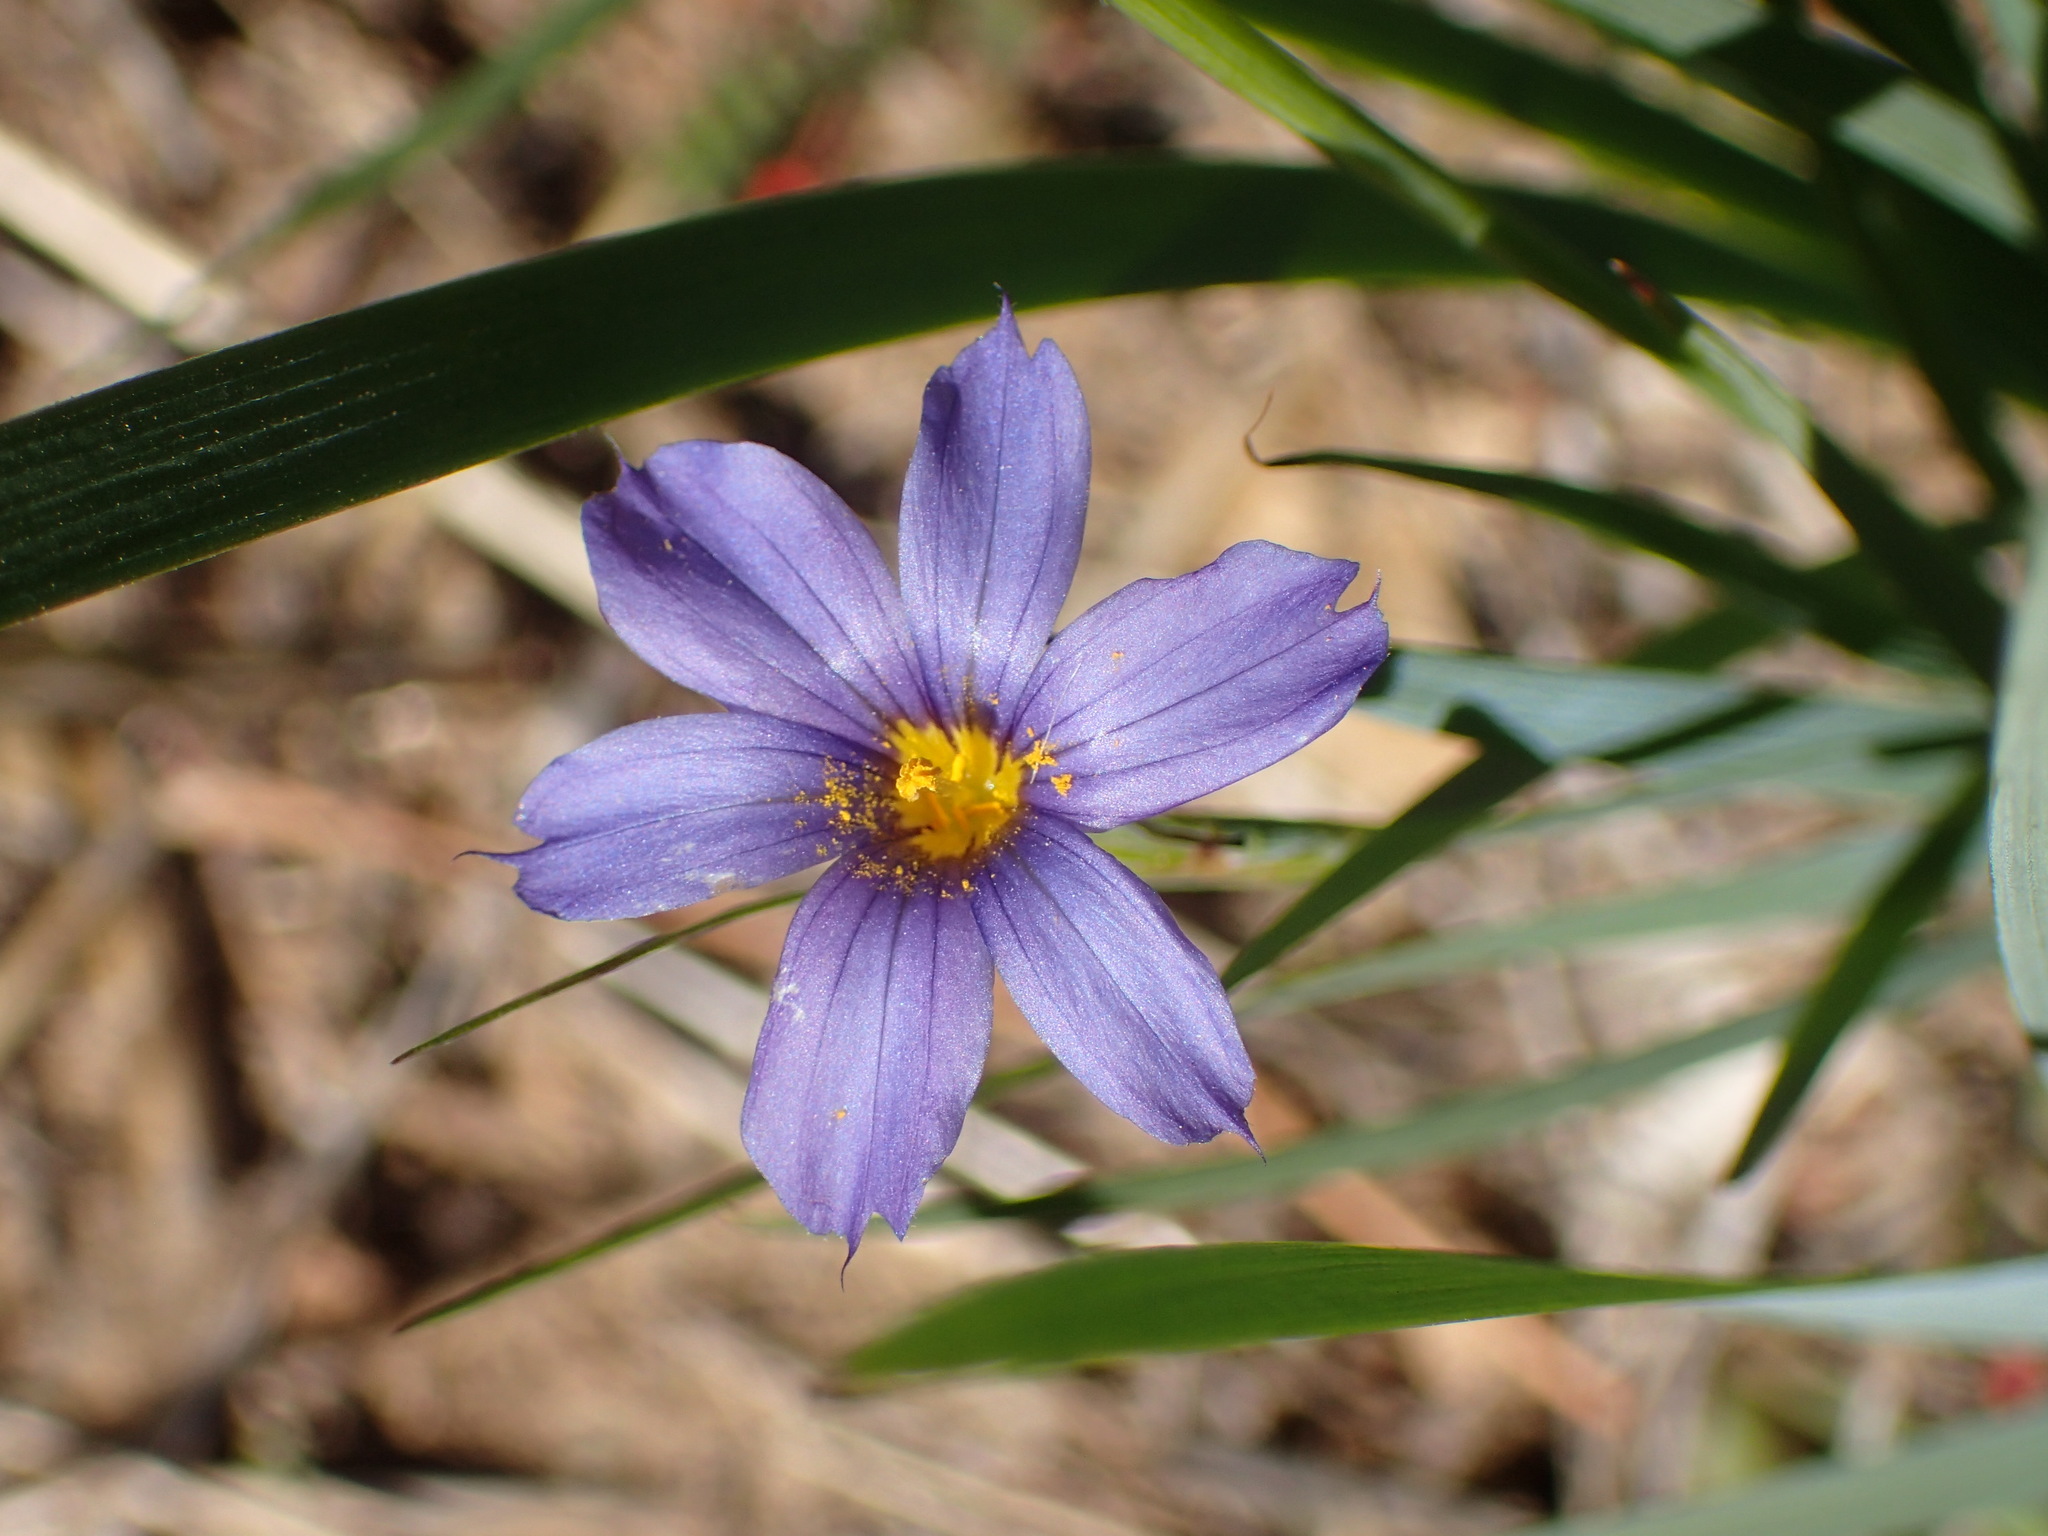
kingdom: Plantae
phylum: Tracheophyta
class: Liliopsida
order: Asparagales
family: Iridaceae
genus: Sisyrinchium
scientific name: Sisyrinchium bellum
